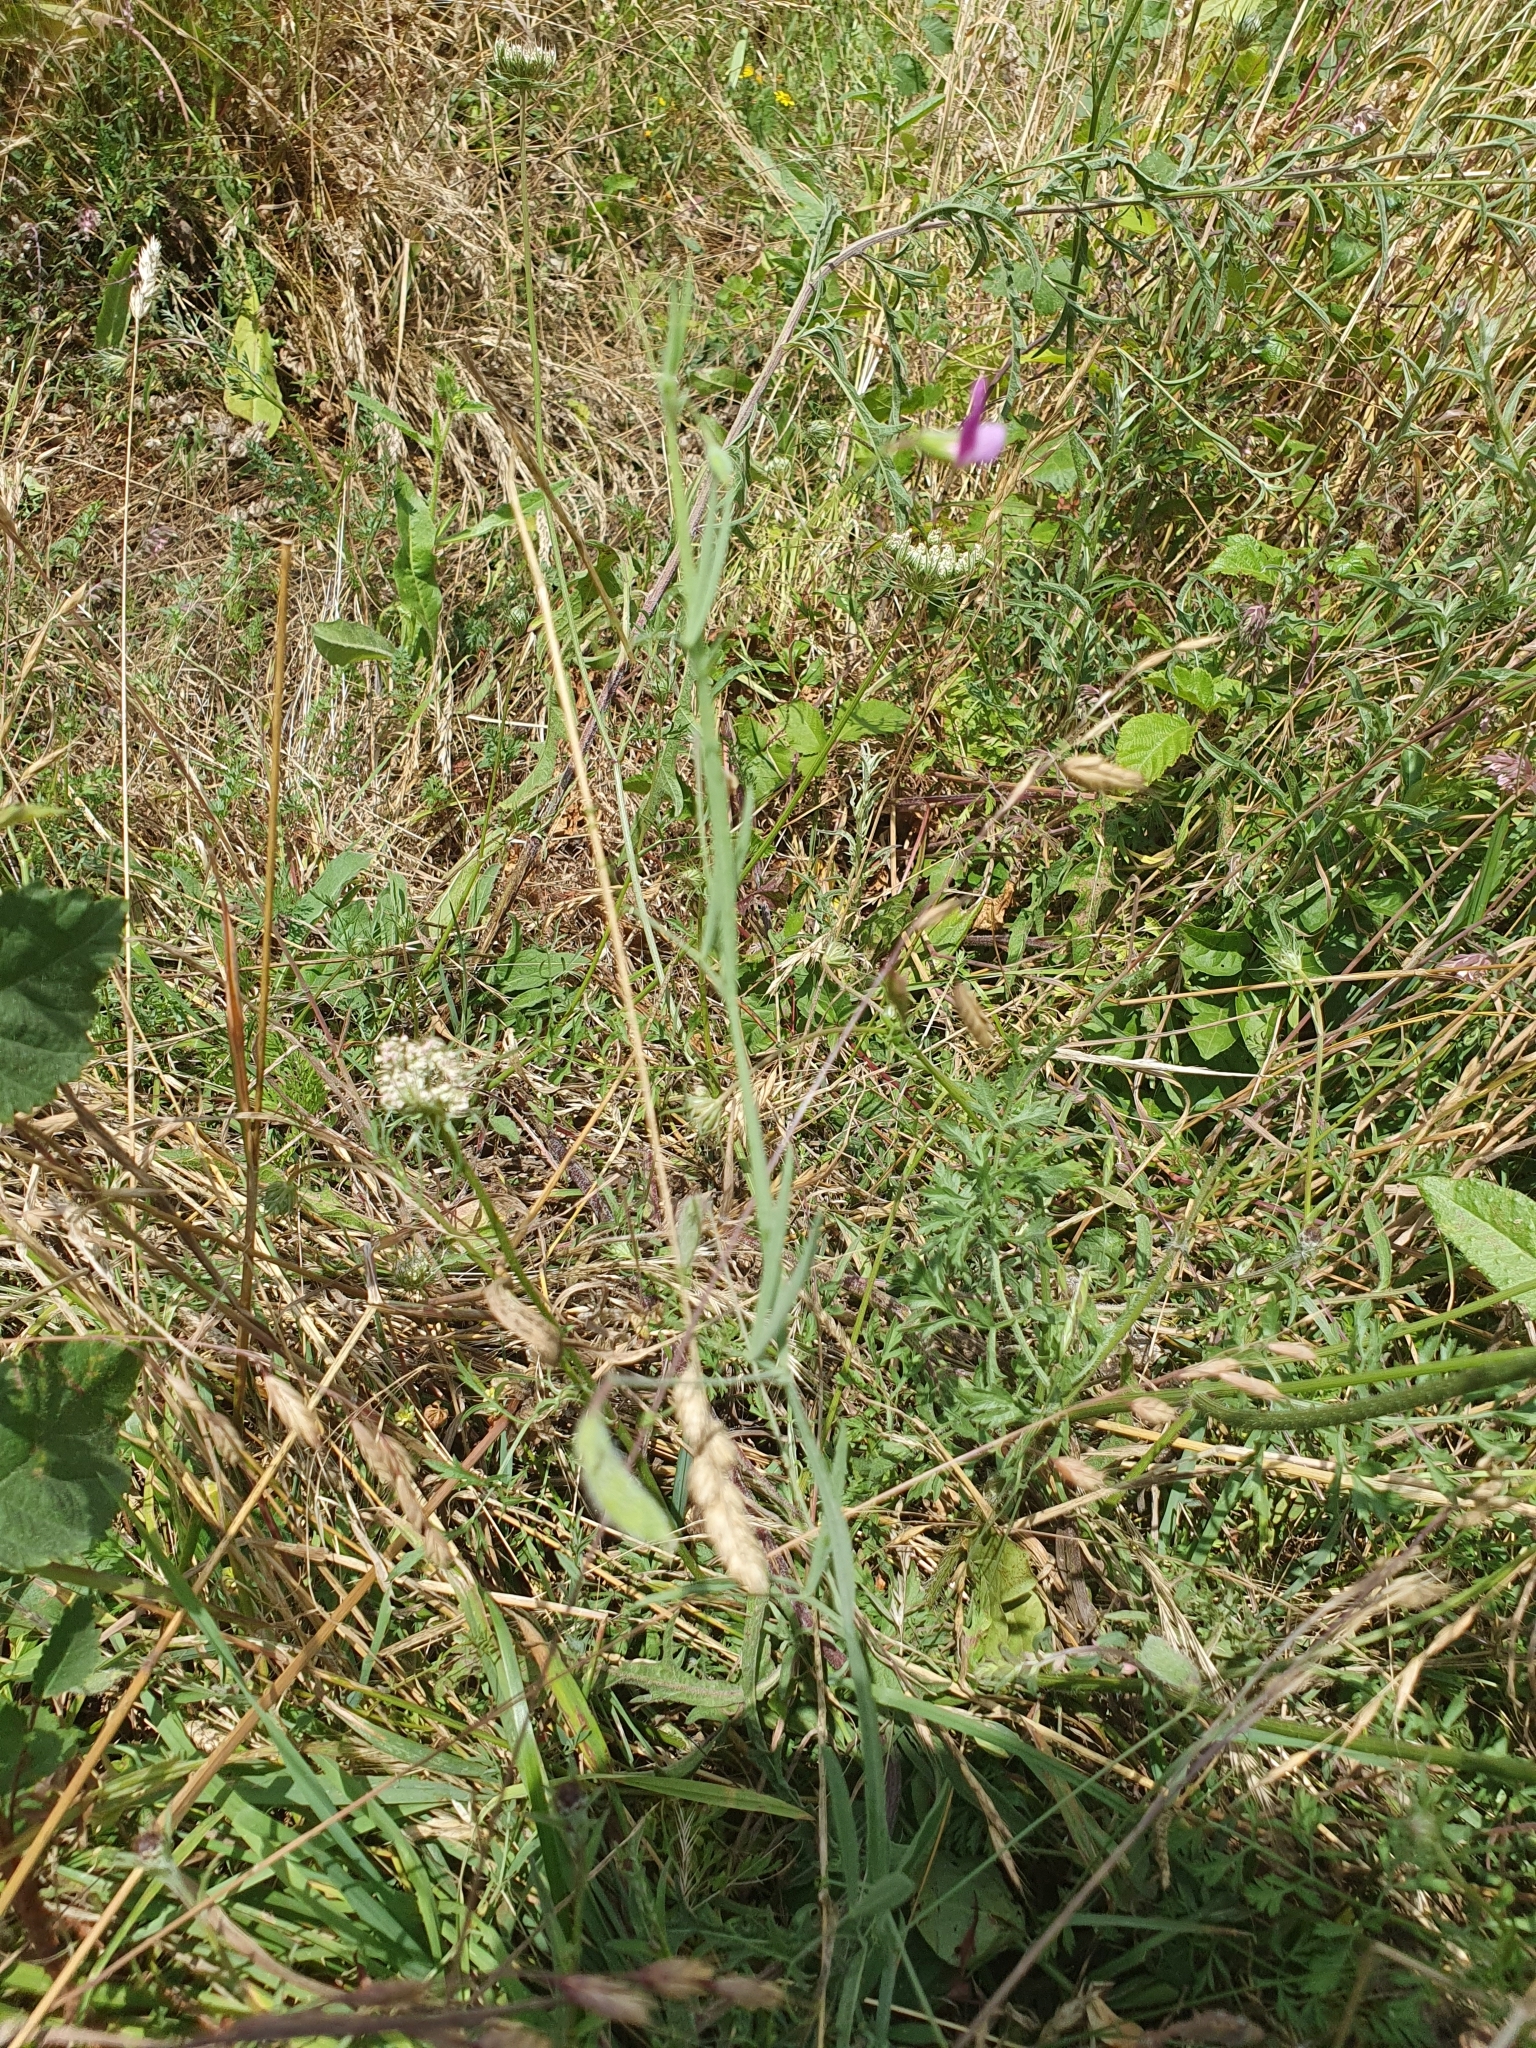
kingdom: Plantae
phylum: Tracheophyta
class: Magnoliopsida
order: Fabales
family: Fabaceae
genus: Lathyrus
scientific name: Lathyrus hirsutus
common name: Hairy vetchling
